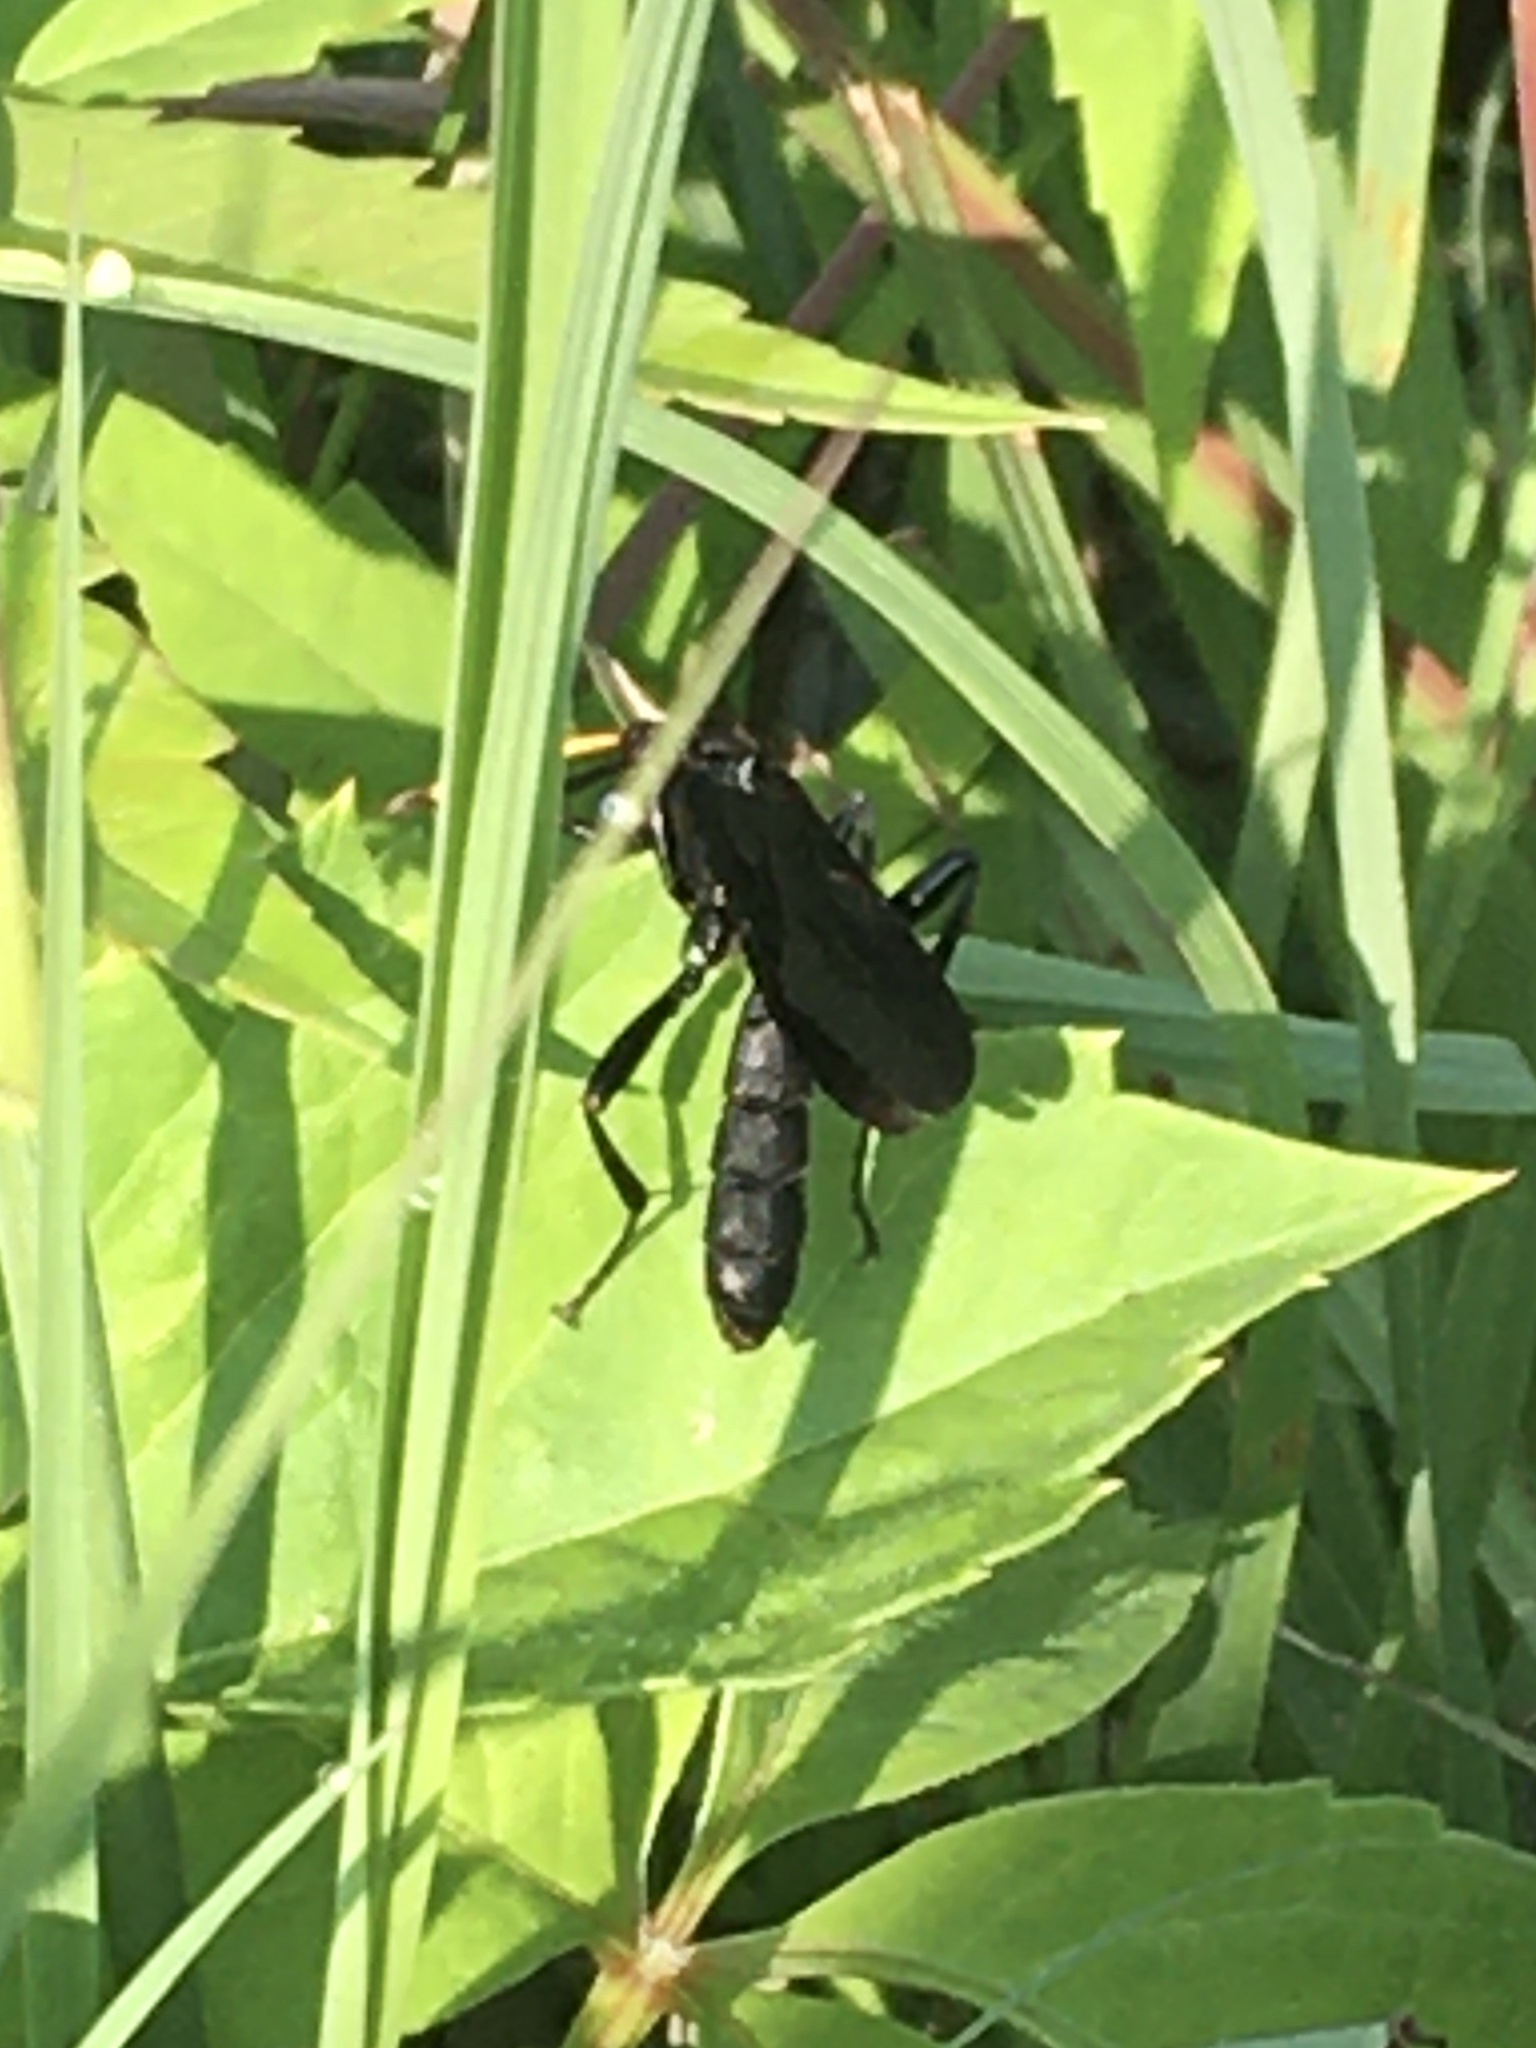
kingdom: Animalia
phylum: Arthropoda
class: Insecta
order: Hymenoptera
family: Ichneumonidae
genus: Gnamptopelta
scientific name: Gnamptopelta obsidianator
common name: Bent-shielded besieger wasp
